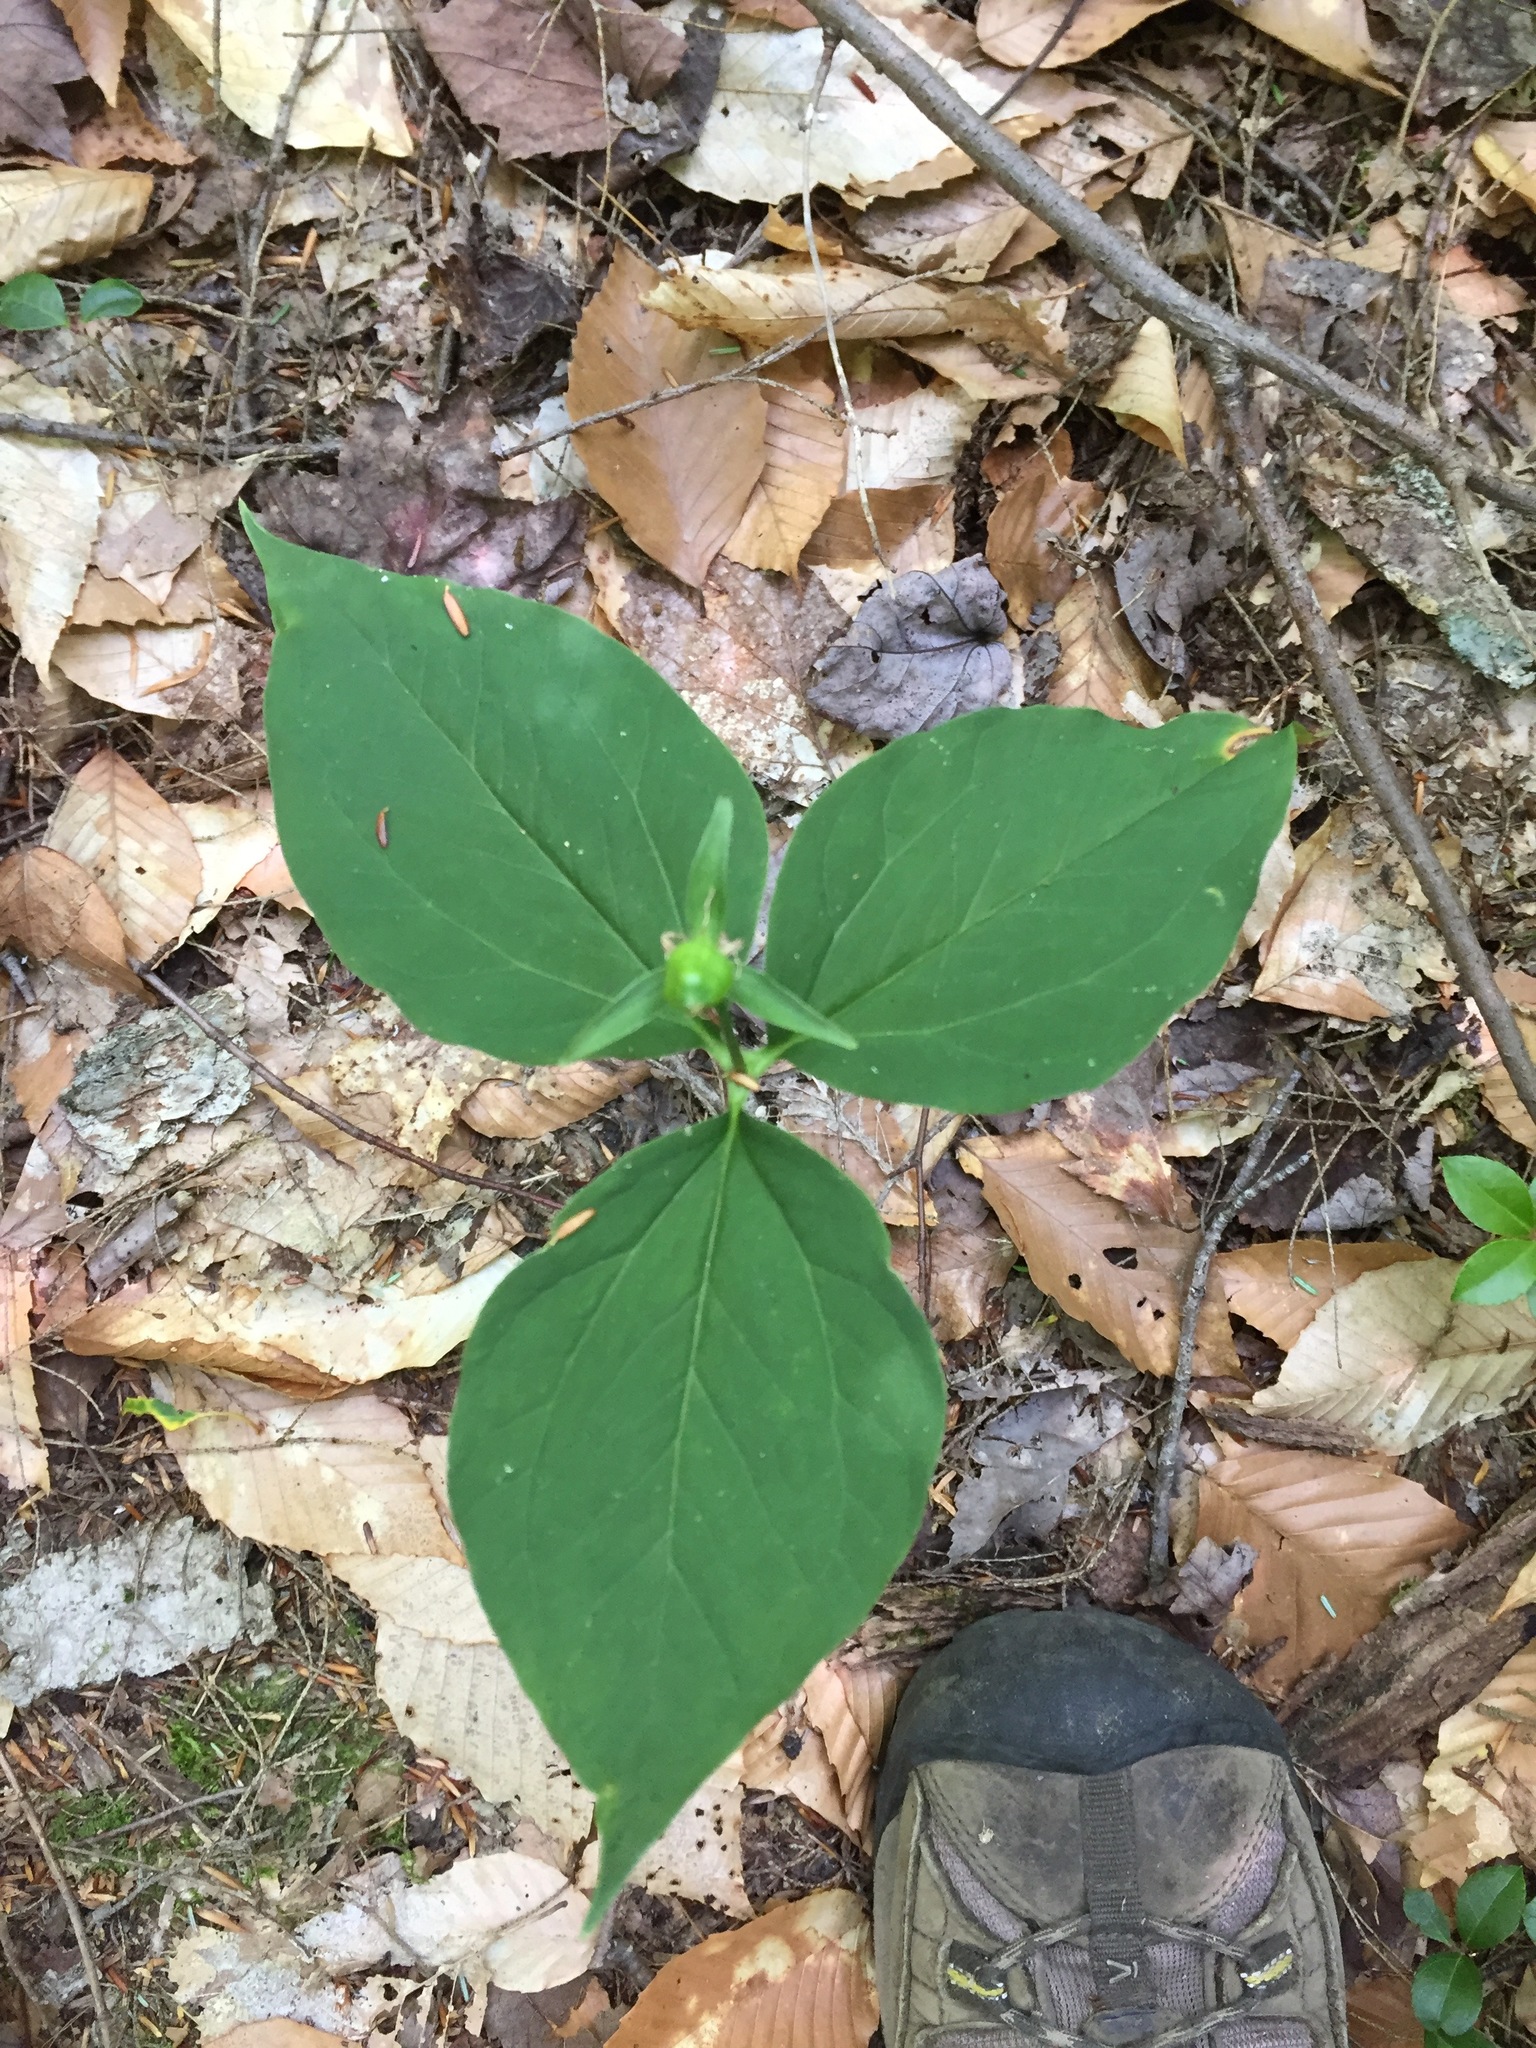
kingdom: Plantae
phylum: Tracheophyta
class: Liliopsida
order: Liliales
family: Melanthiaceae
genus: Trillium
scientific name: Trillium undulatum
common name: Paint trillium
